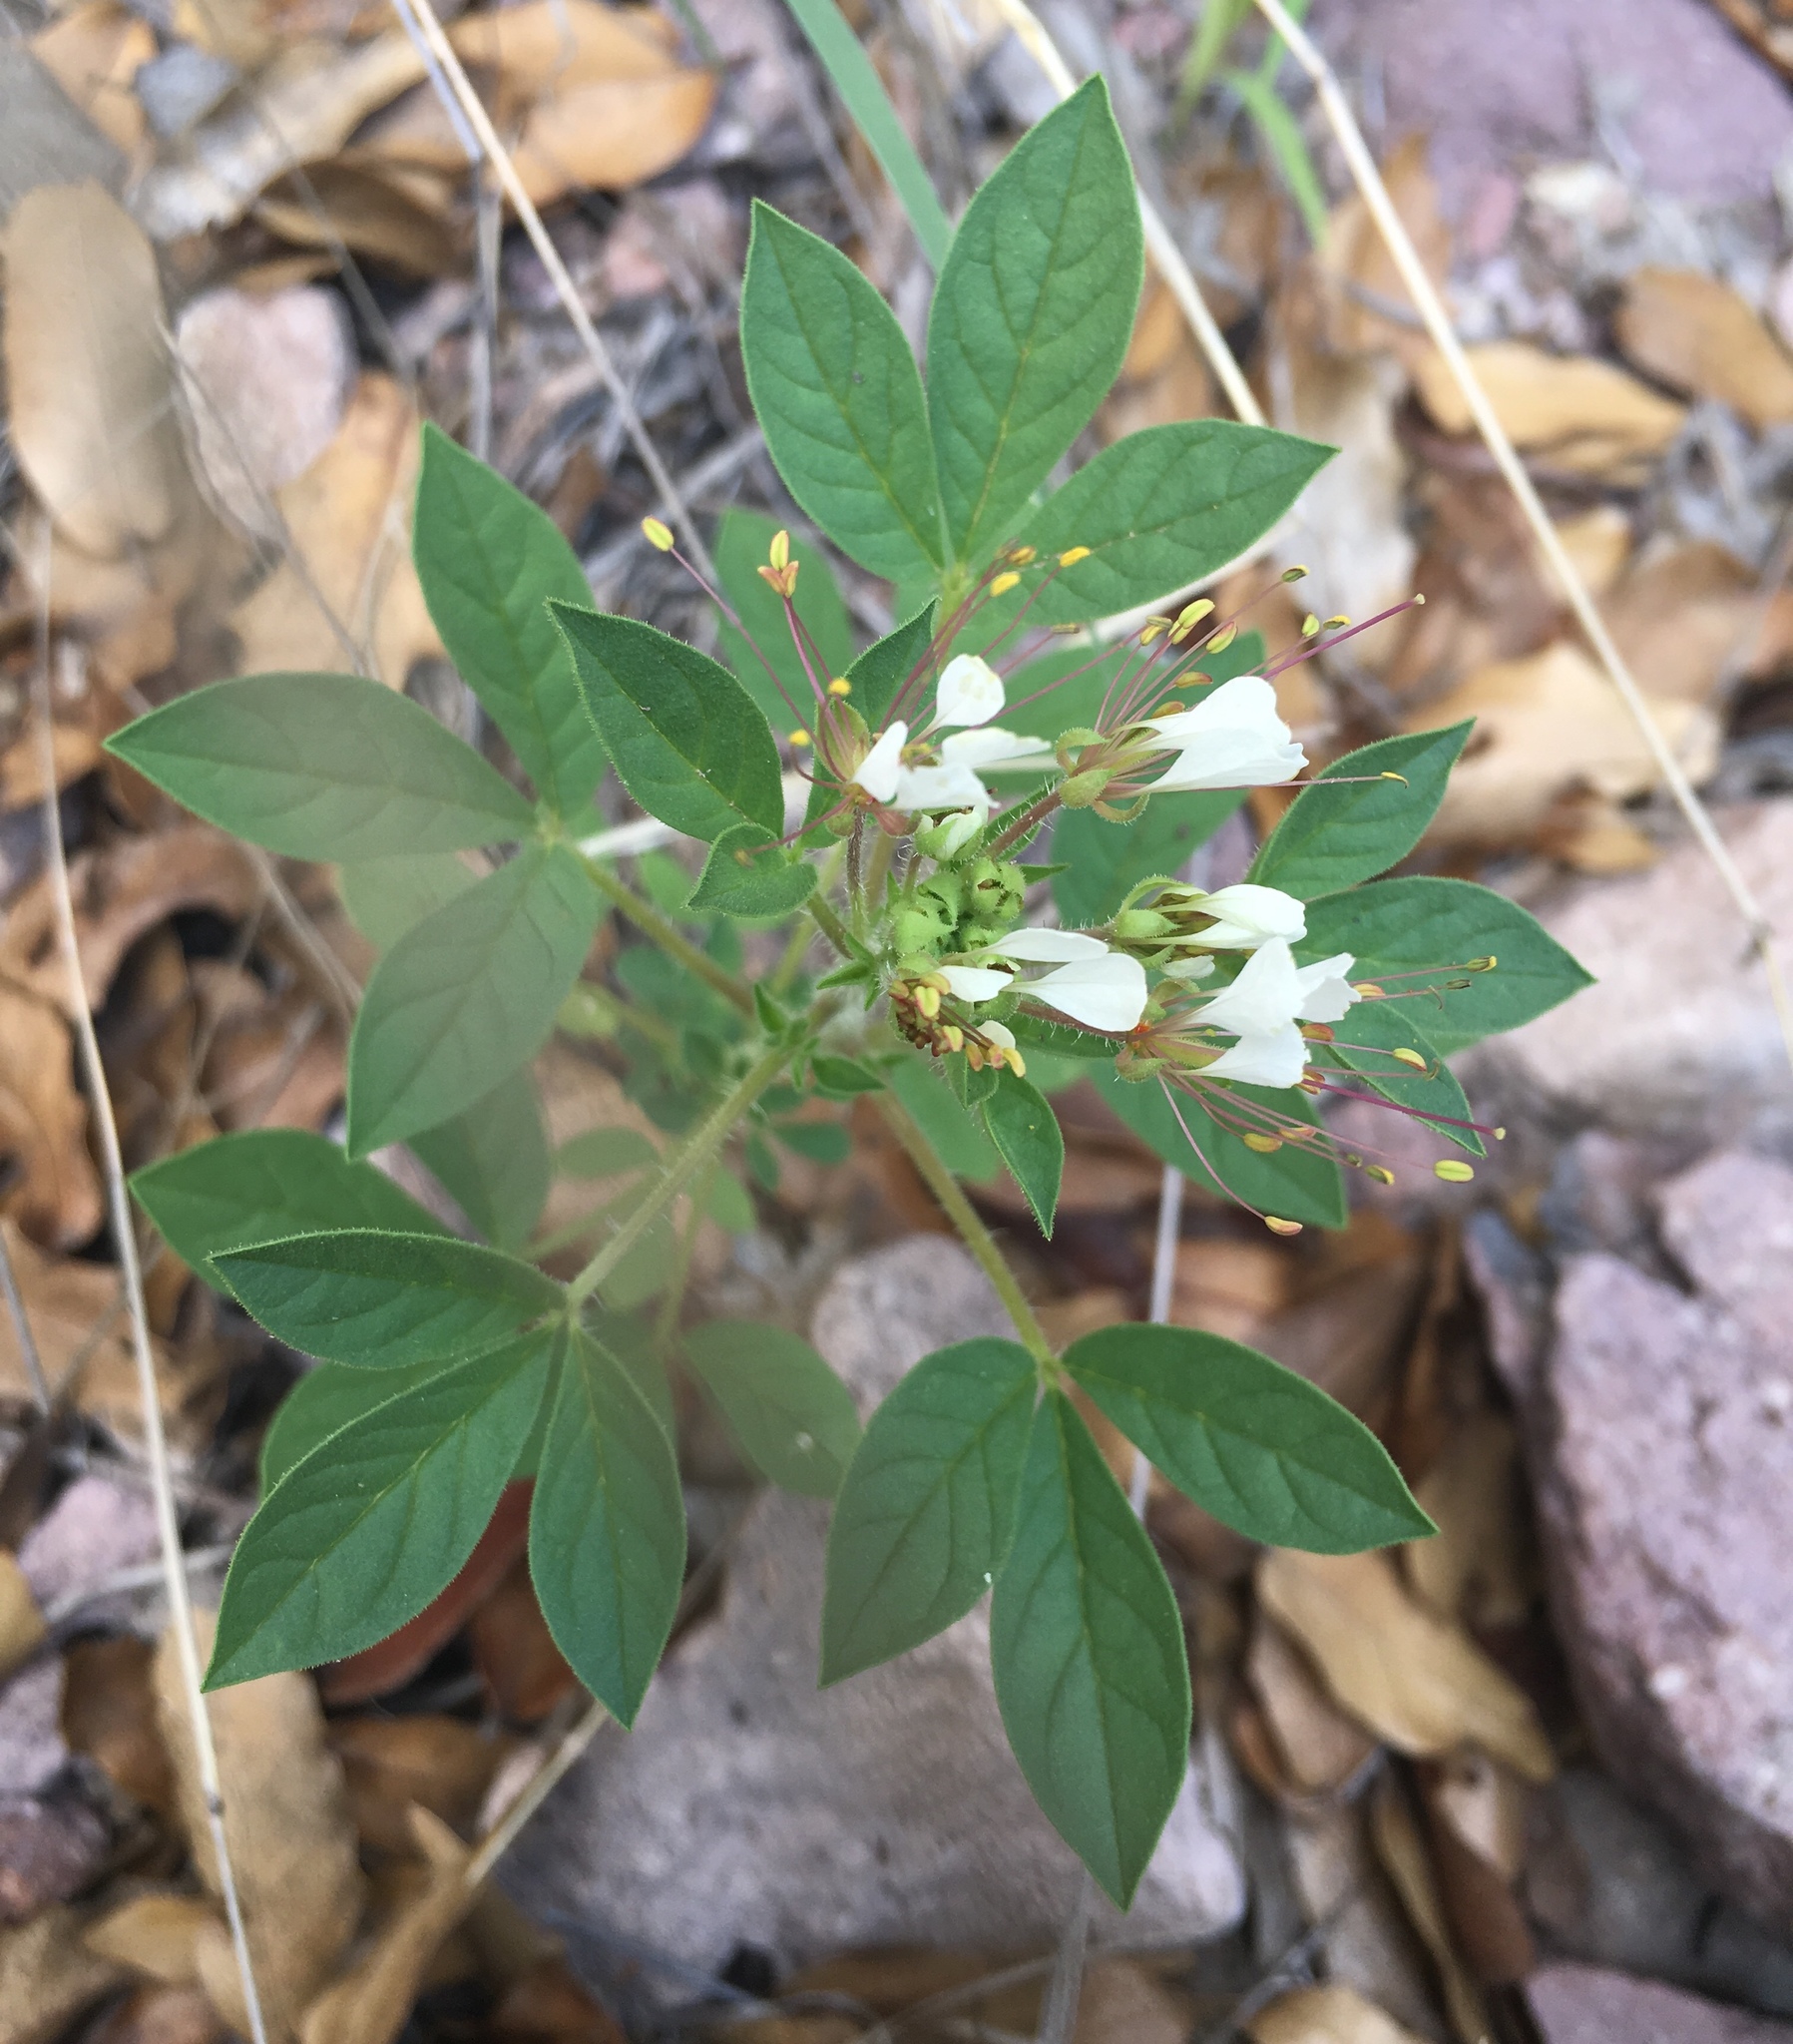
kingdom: Plantae
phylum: Tracheophyta
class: Magnoliopsida
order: Brassicales
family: Cleomaceae
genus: Polanisia
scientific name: Polanisia dodecandra
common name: Clammyweed
